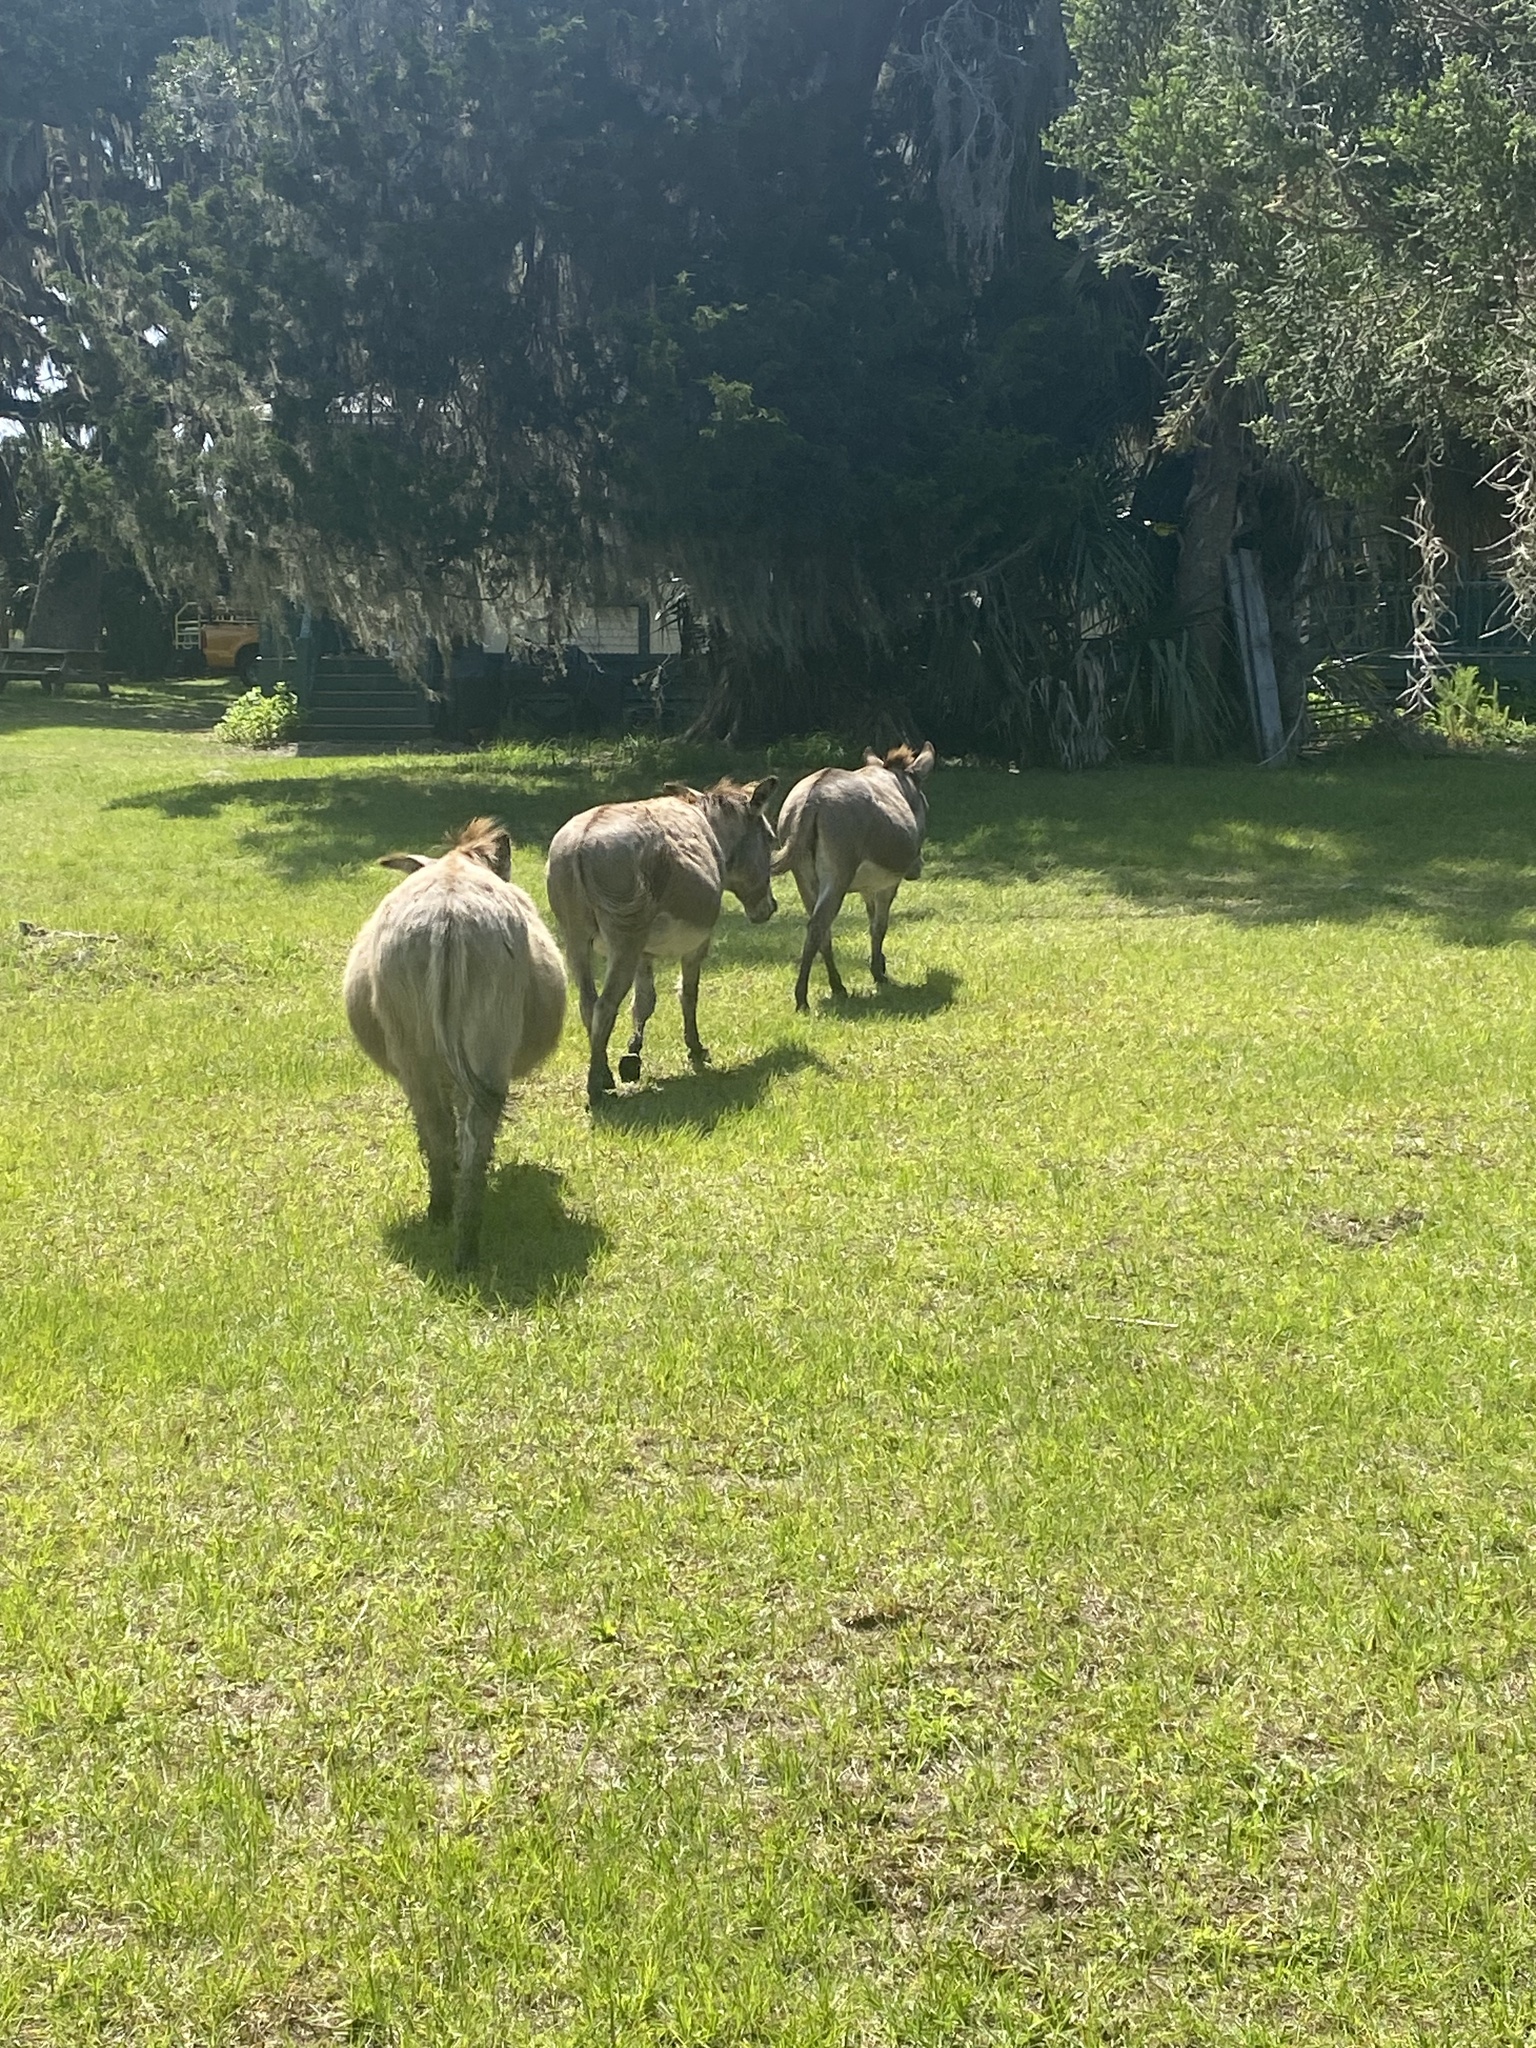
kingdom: Animalia
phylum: Chordata
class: Mammalia
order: Perissodactyla
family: Equidae
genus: Equus
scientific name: Equus asinus
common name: Ass
